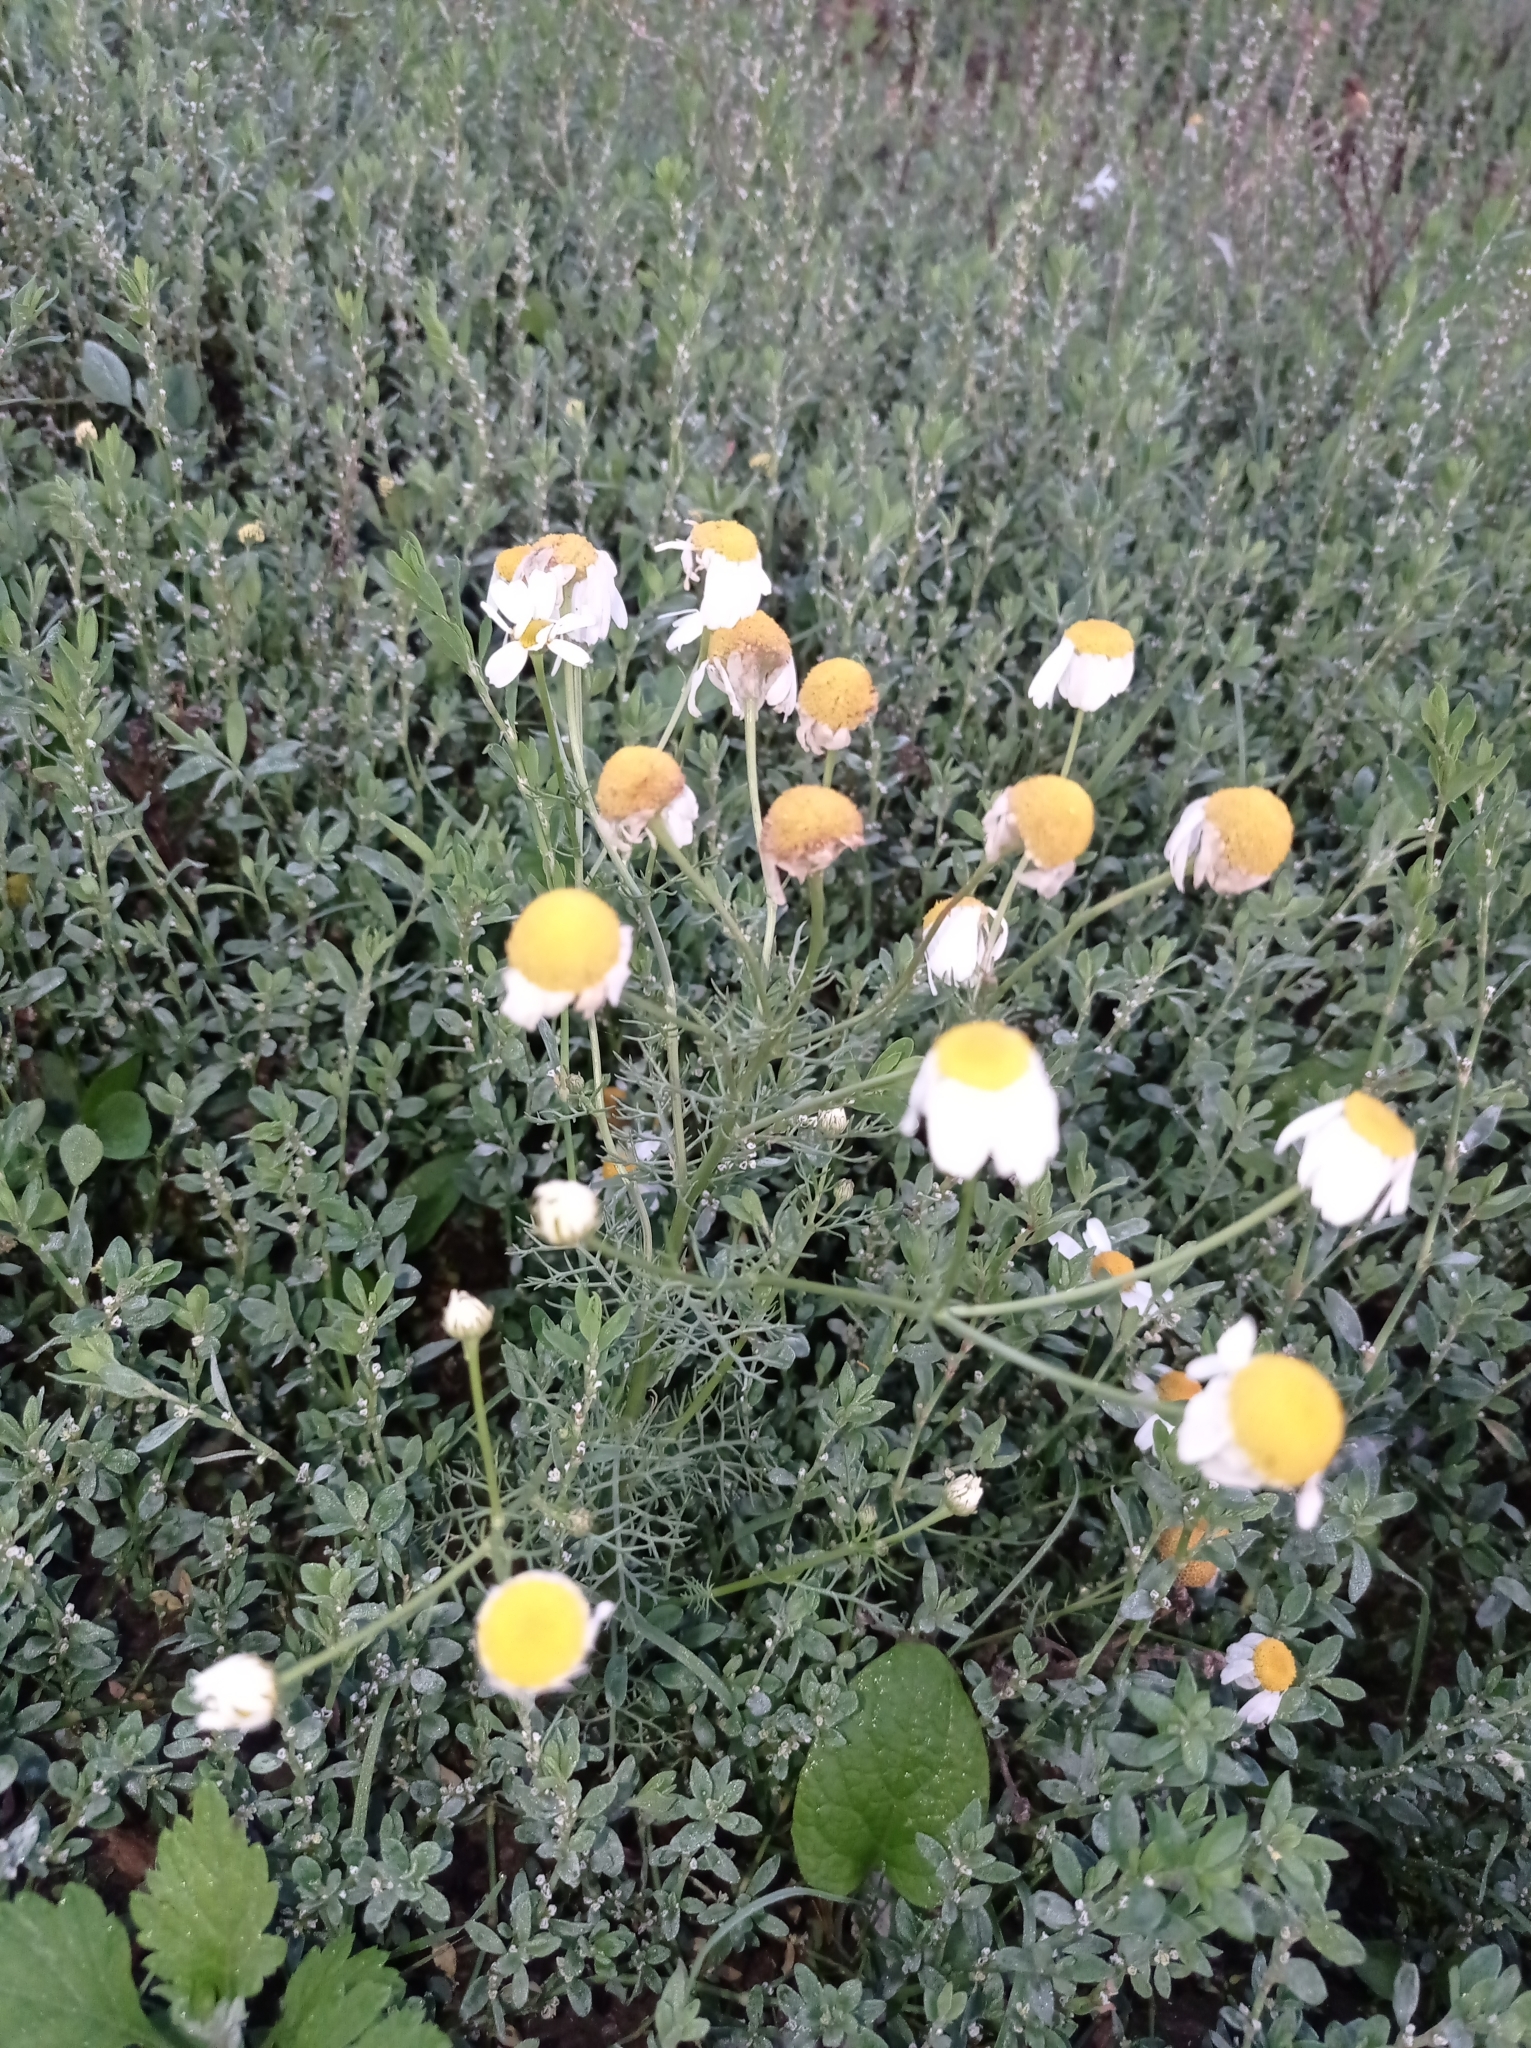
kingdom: Plantae
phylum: Tracheophyta
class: Magnoliopsida
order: Asterales
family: Asteraceae
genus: Tripleurospermum
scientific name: Tripleurospermum inodorum
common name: Scentless mayweed
